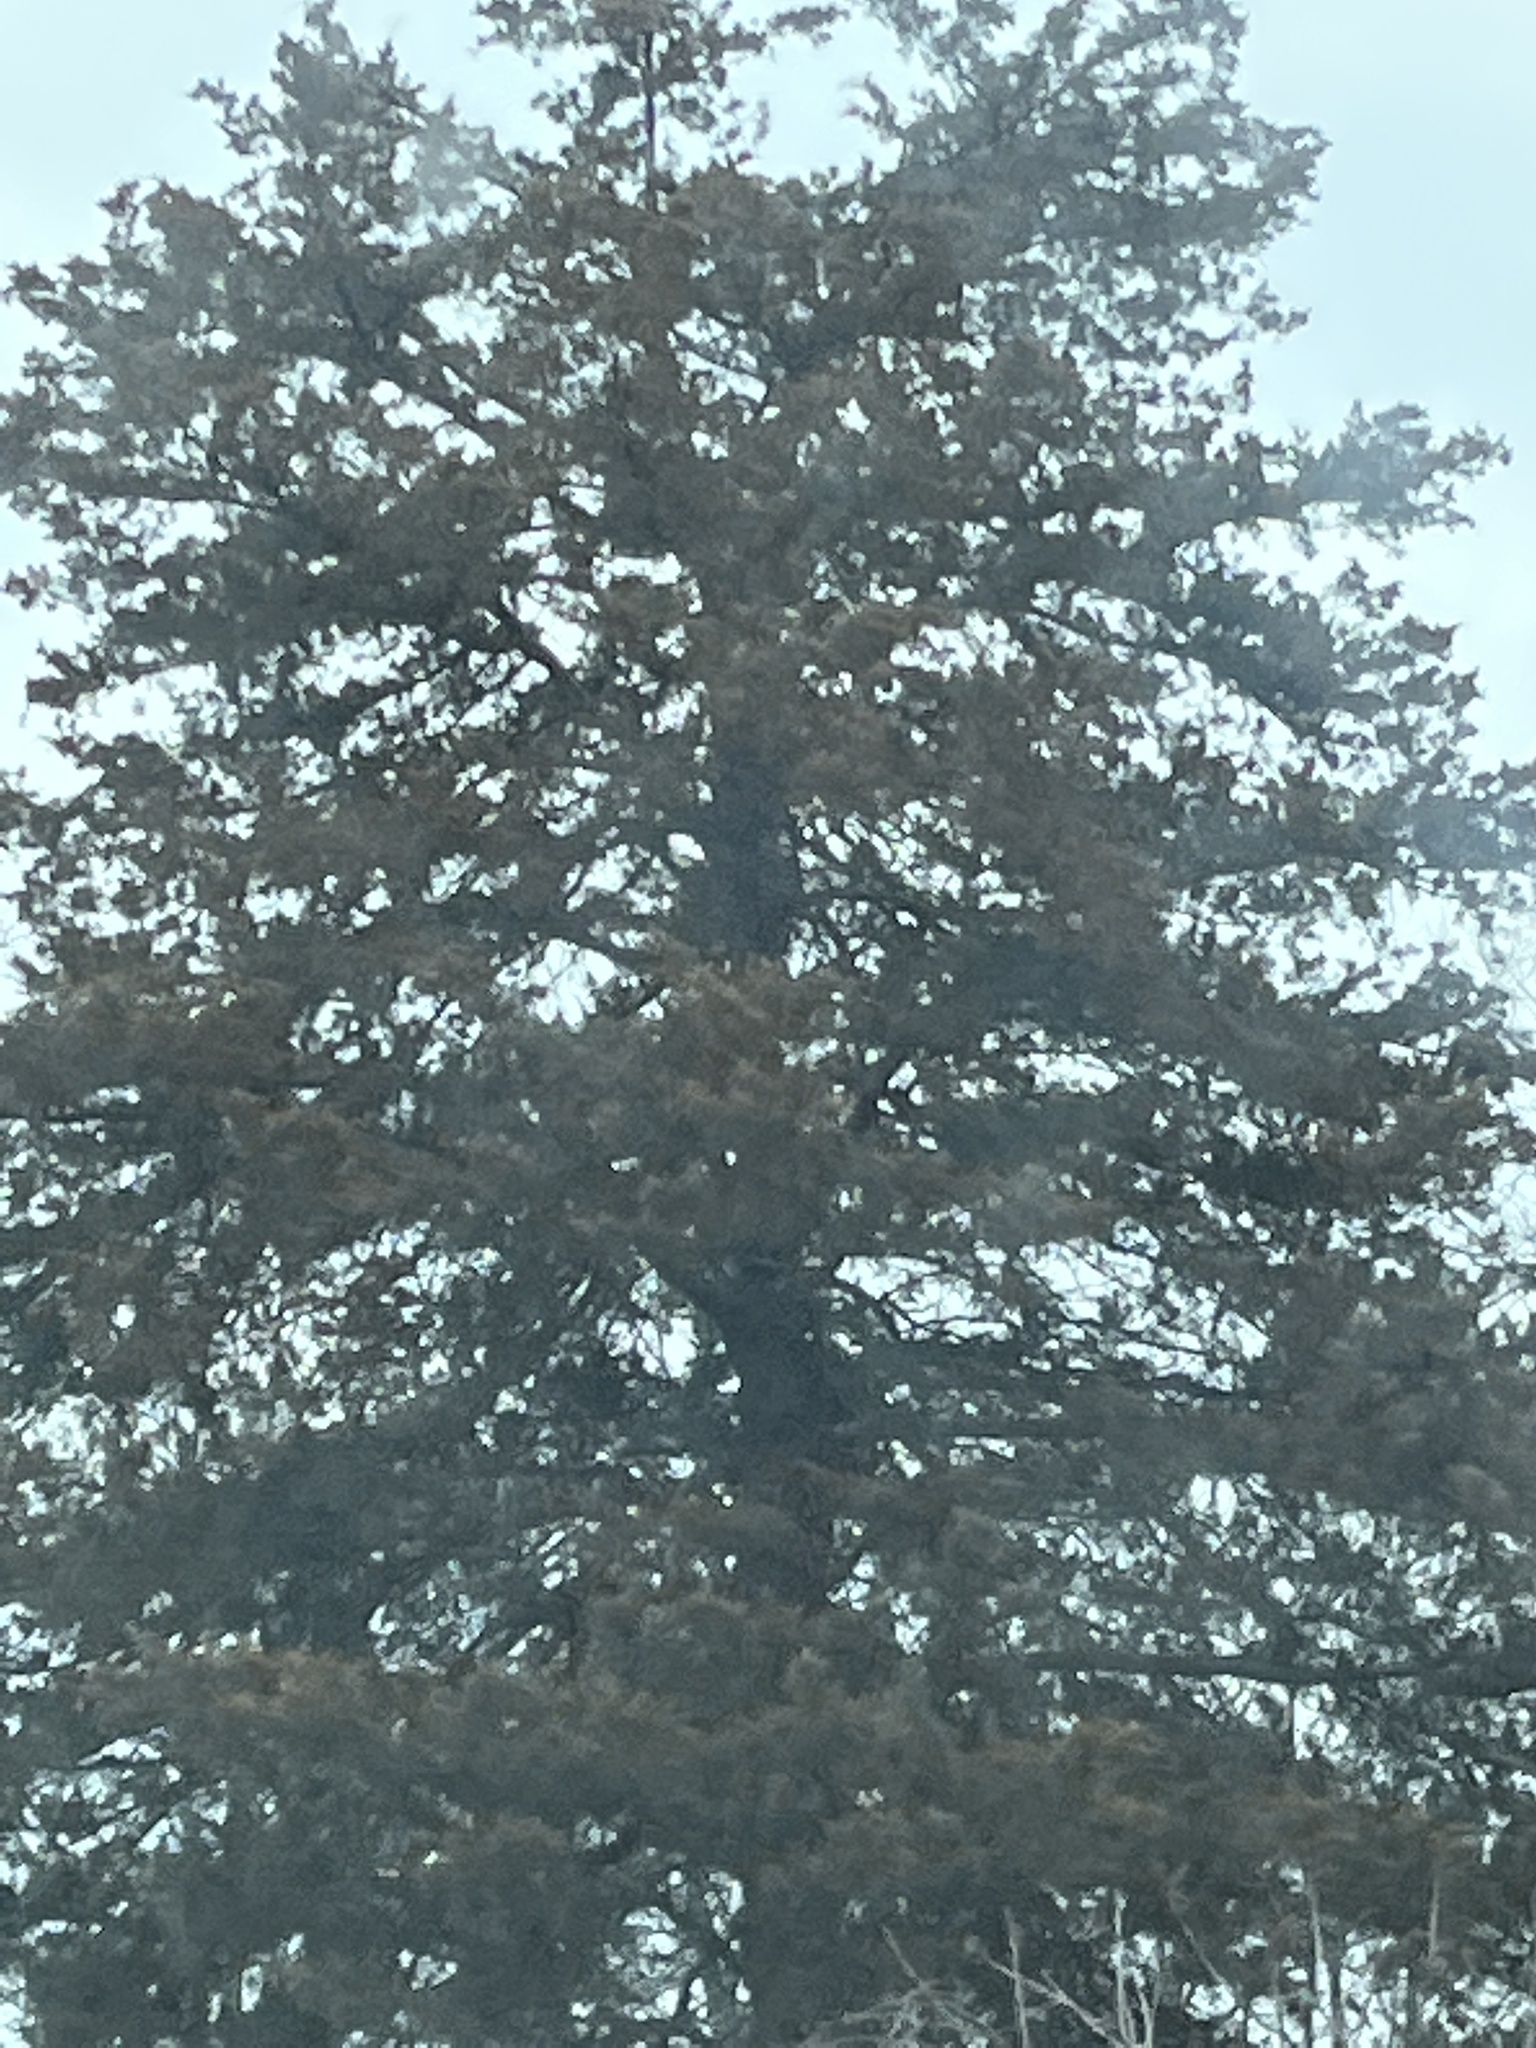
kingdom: Plantae
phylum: Tracheophyta
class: Pinopsida
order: Pinales
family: Pinaceae
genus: Picea
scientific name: Picea pungens
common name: Colorado spruce
